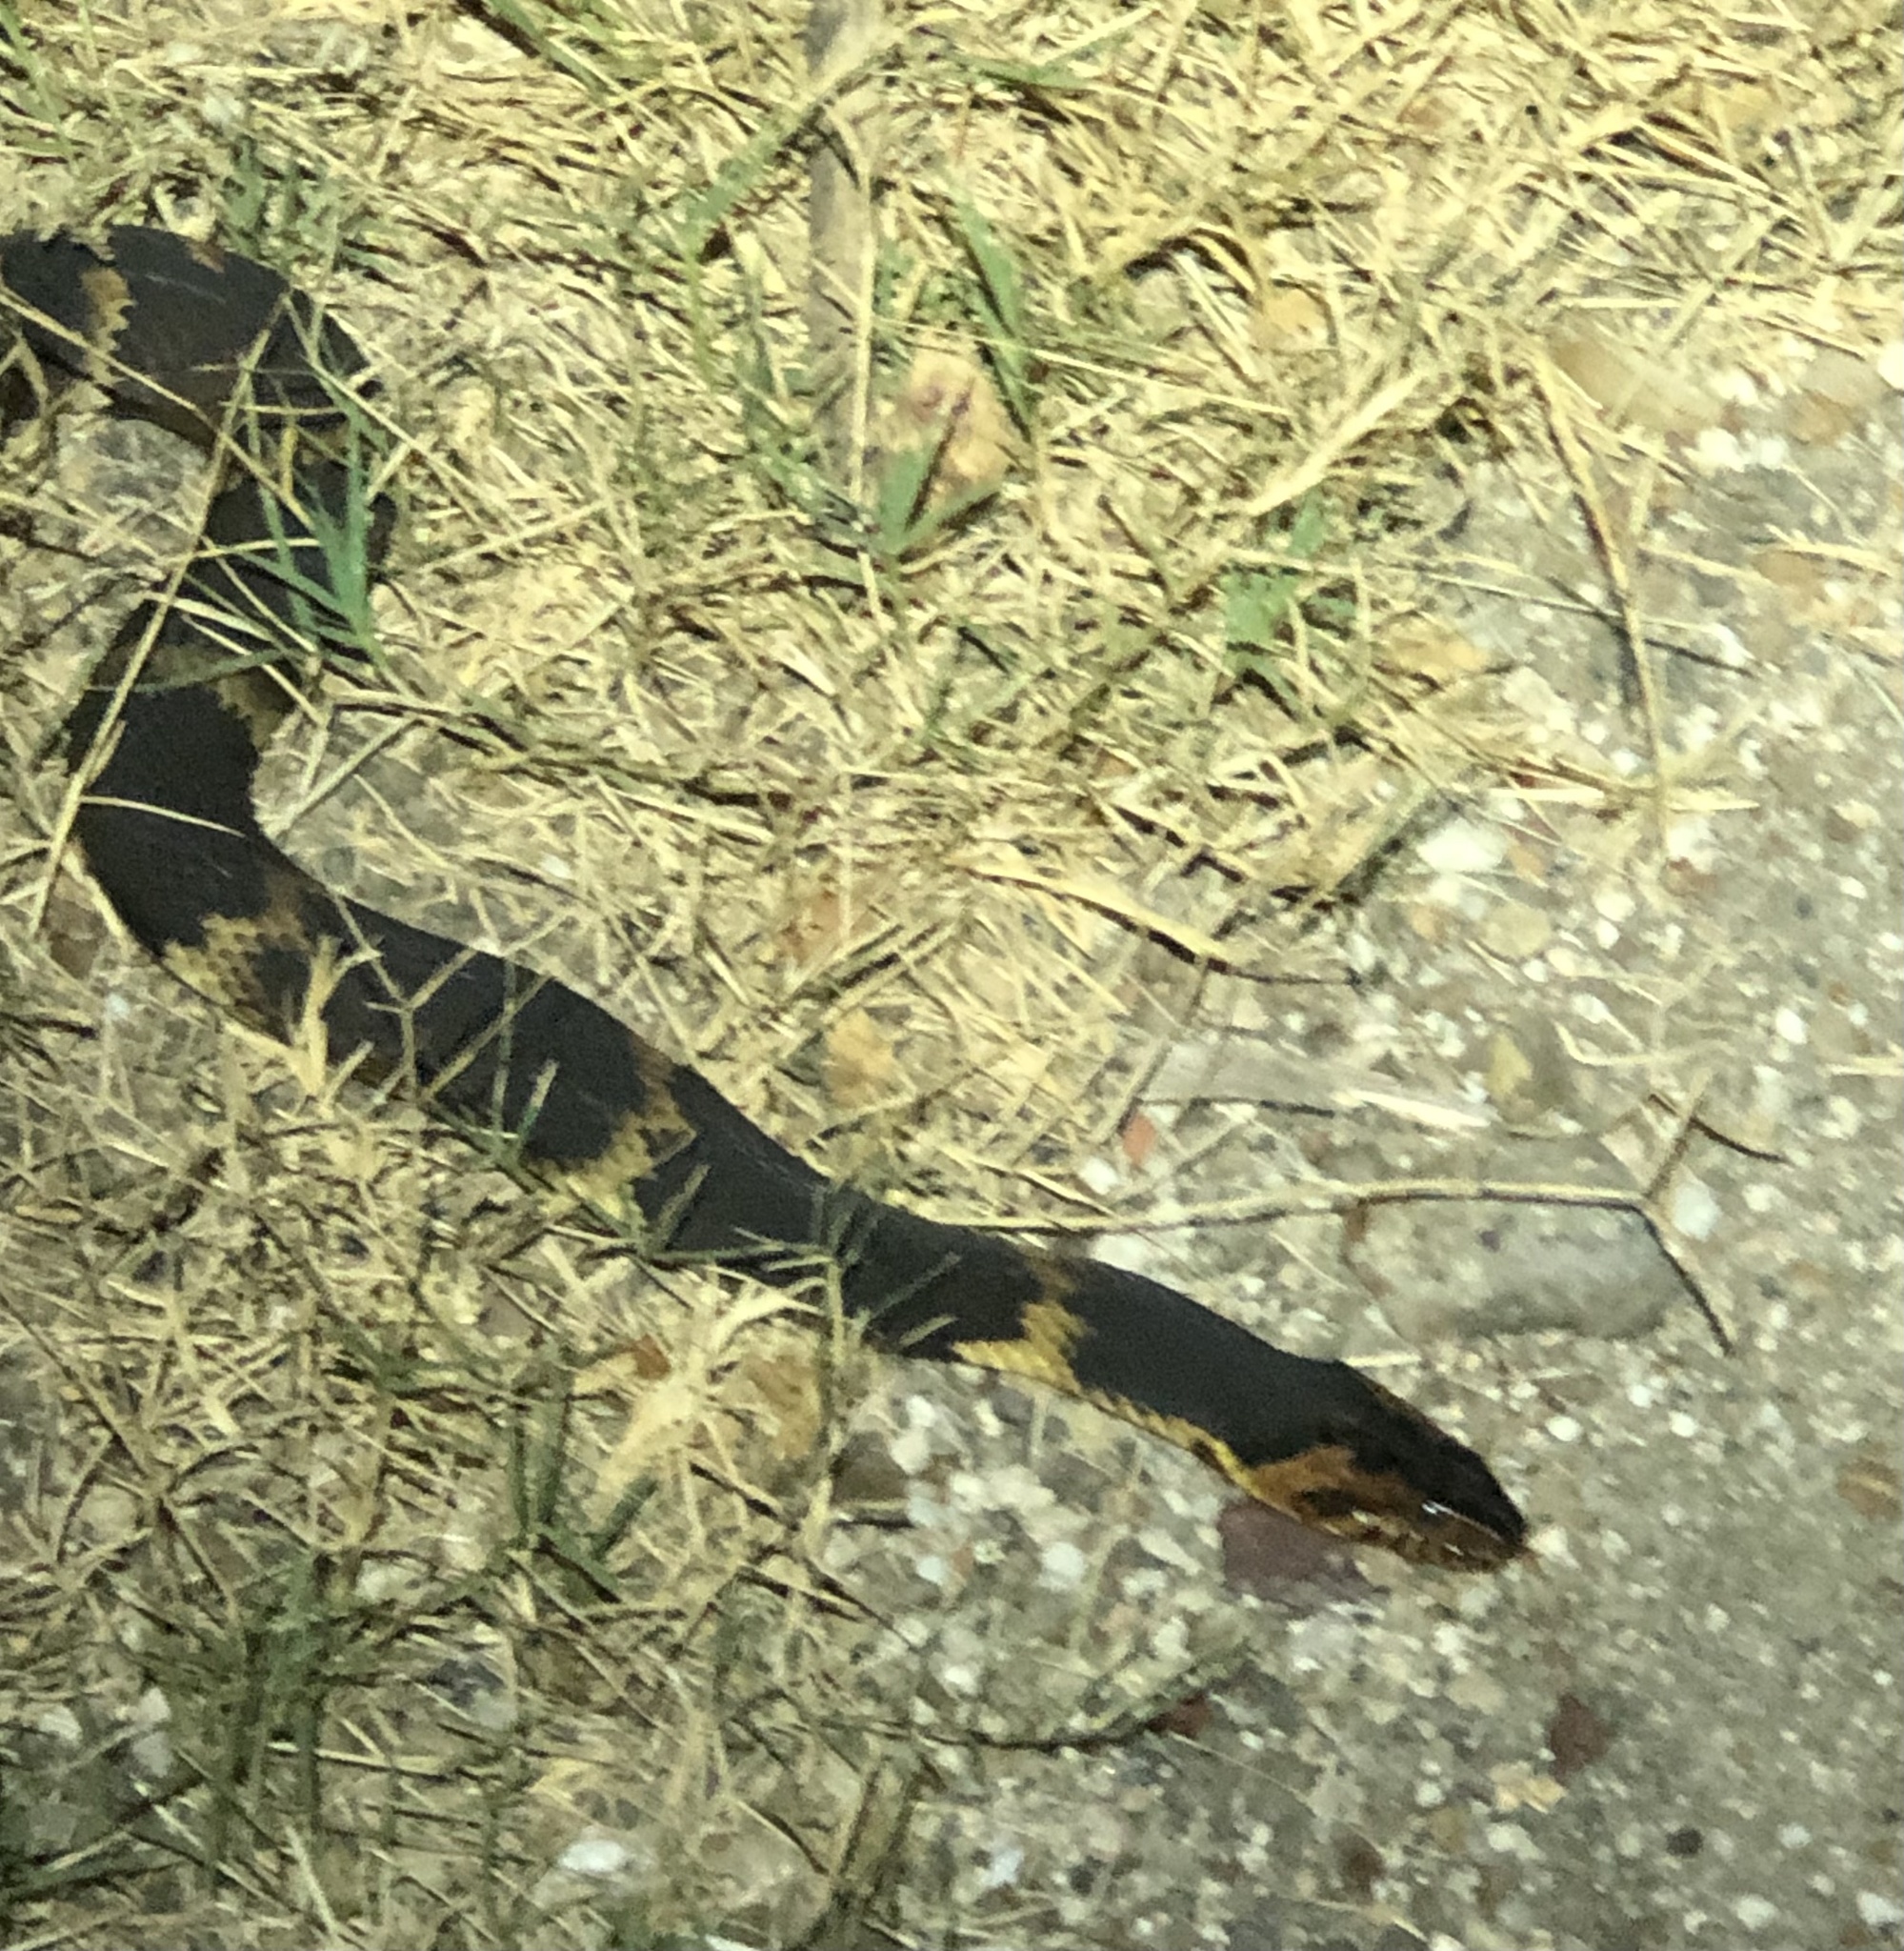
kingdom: Animalia
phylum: Chordata
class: Squamata
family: Colubridae
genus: Nerodia
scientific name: Nerodia fasciata
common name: Southern water snake
